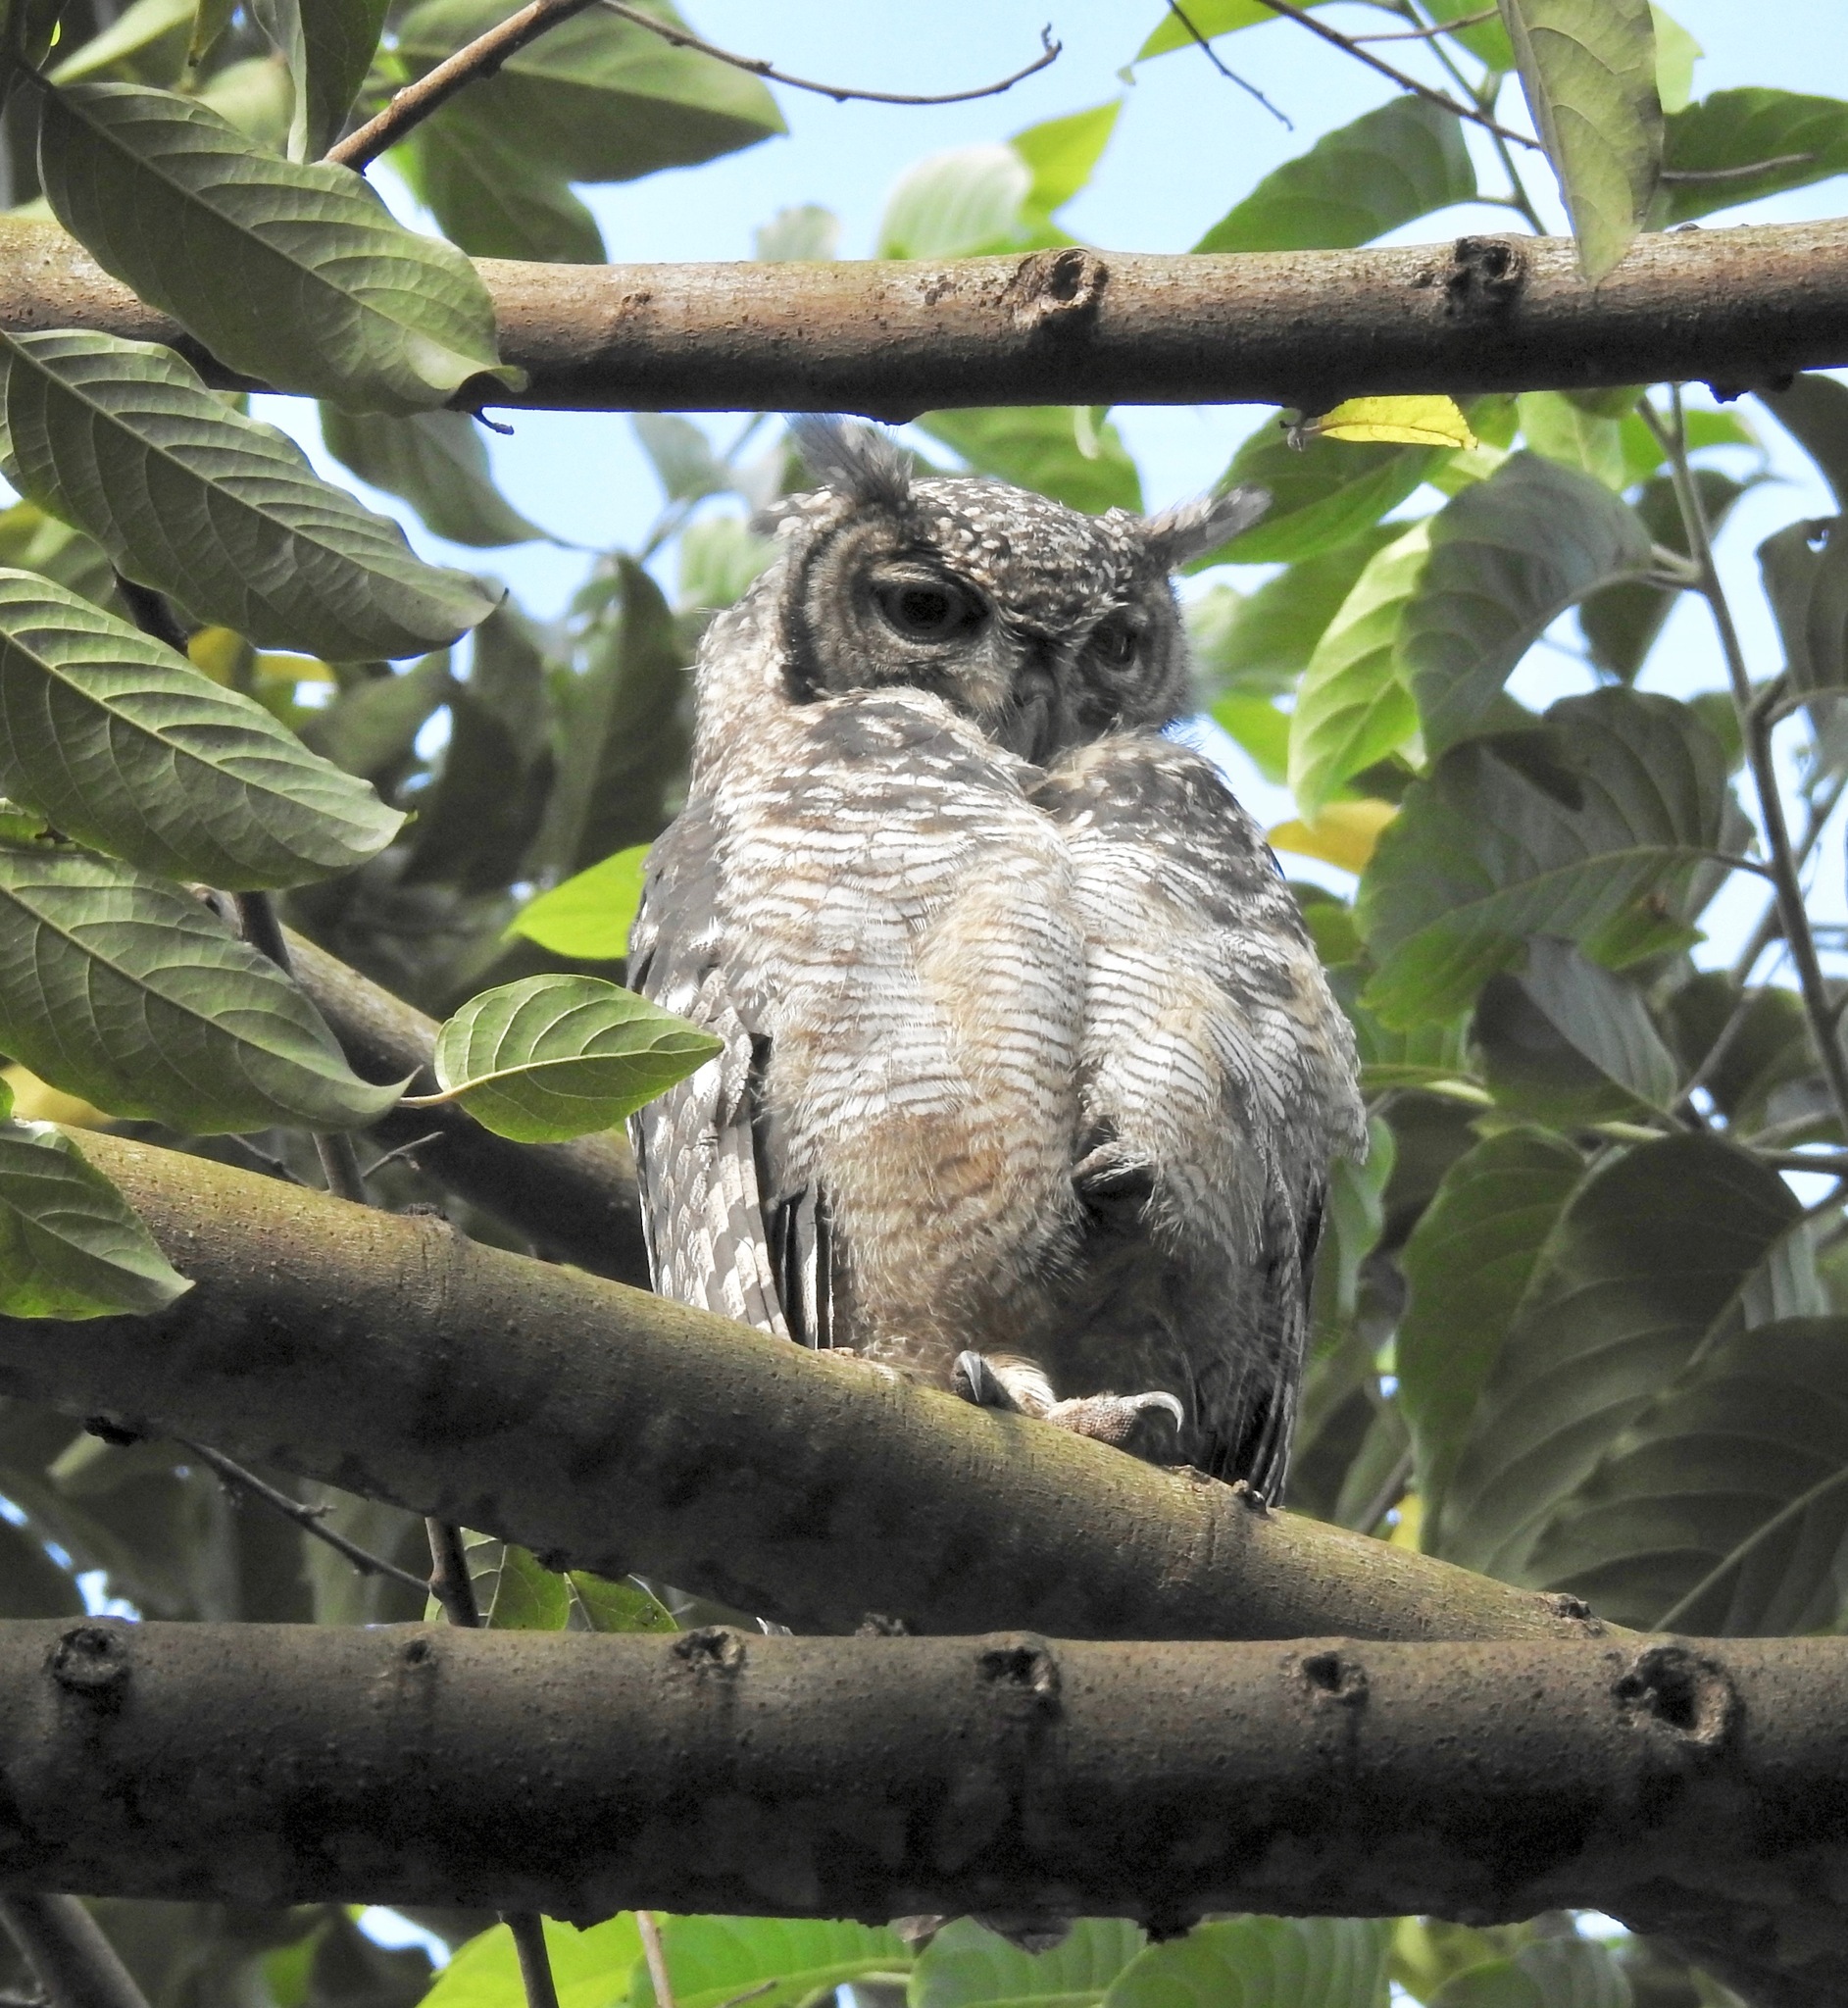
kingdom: Animalia
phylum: Chordata
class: Aves
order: Strigiformes
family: Strigidae
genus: Bubo
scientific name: Bubo africanus
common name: Spotted eagle-owl
